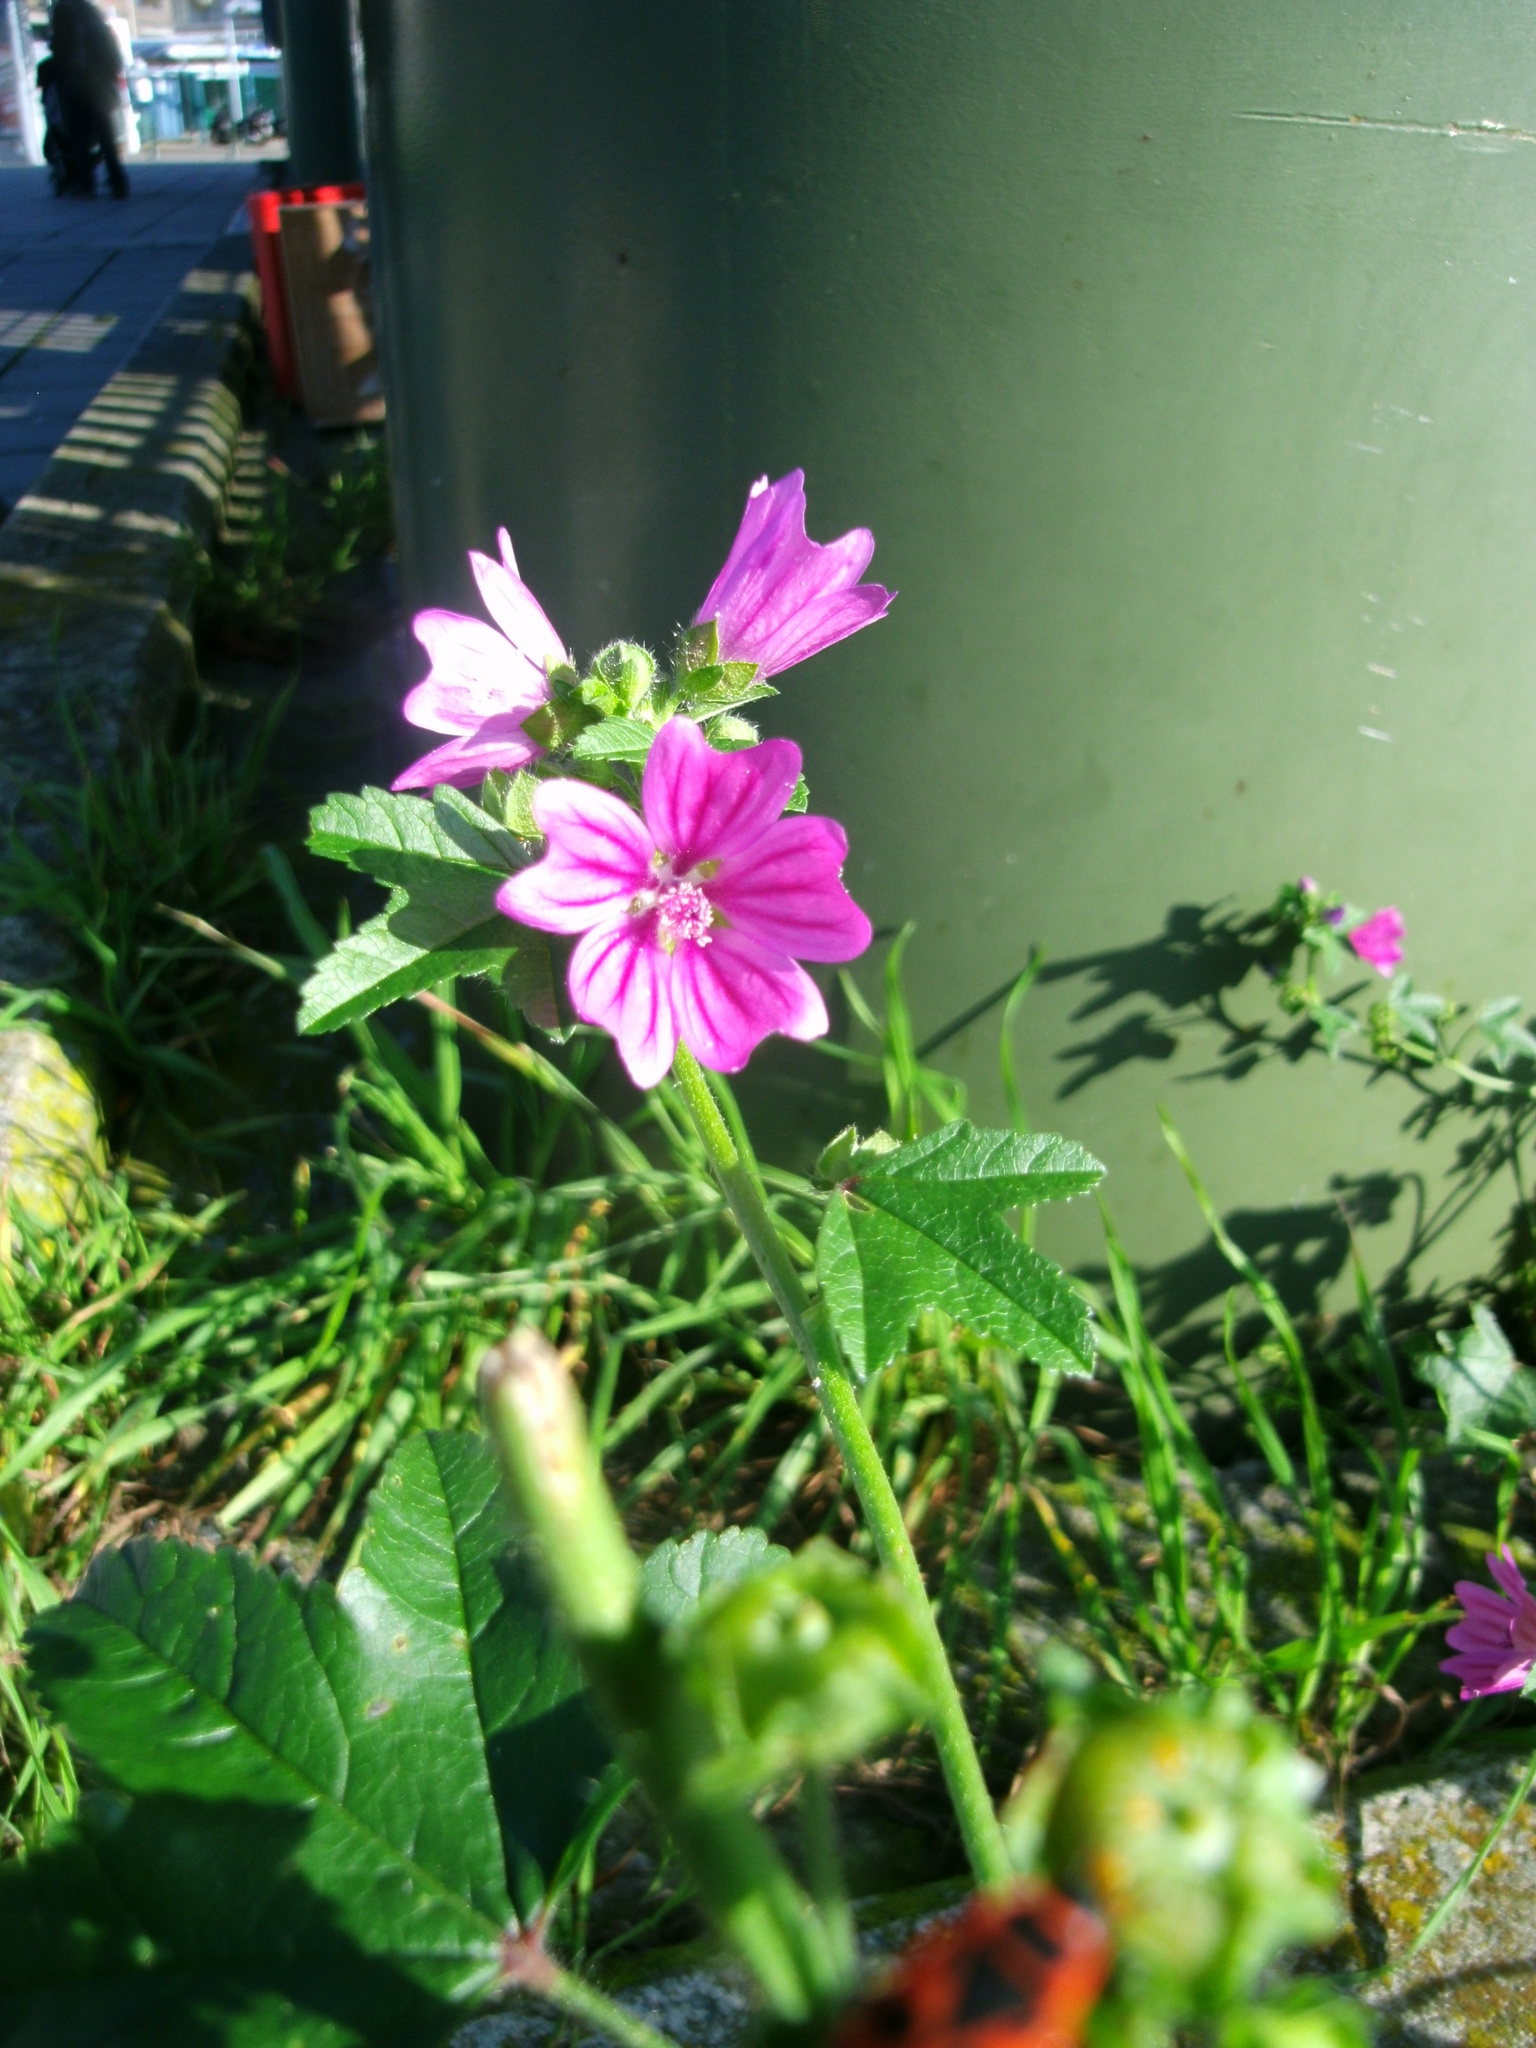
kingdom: Plantae
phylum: Tracheophyta
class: Magnoliopsida
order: Malvales
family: Malvaceae
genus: Malva
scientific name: Malva sylvestris
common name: Common mallow
